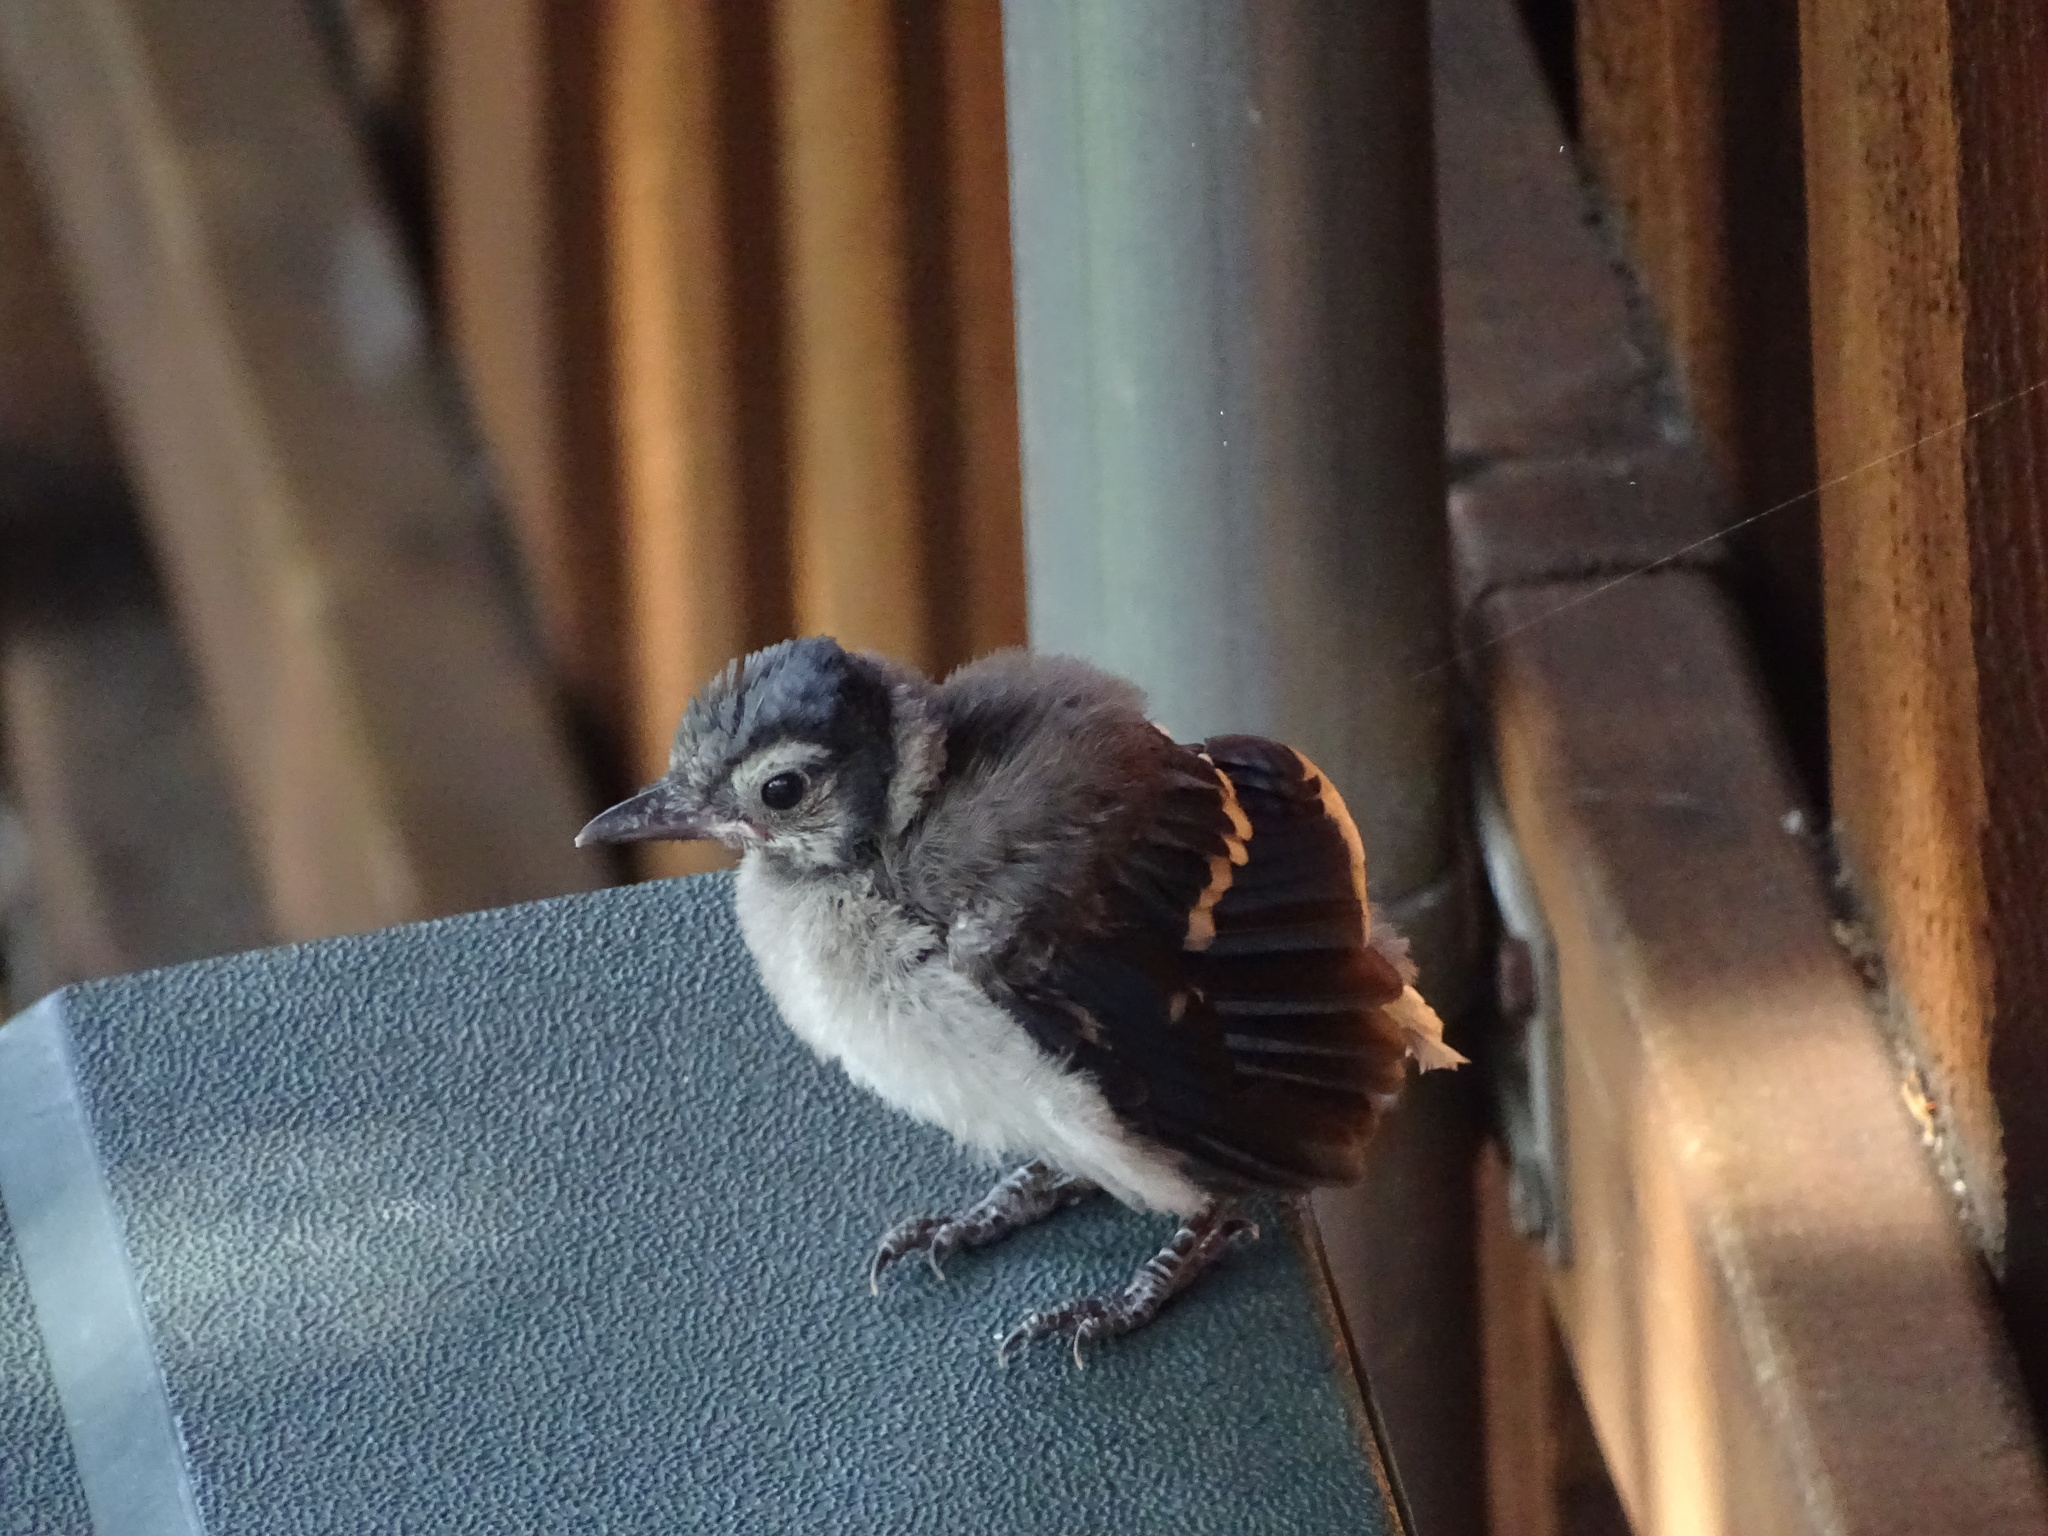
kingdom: Animalia
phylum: Chordata
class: Aves
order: Passeriformes
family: Corvidae
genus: Cyanocitta
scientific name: Cyanocitta cristata
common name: Blue jay
